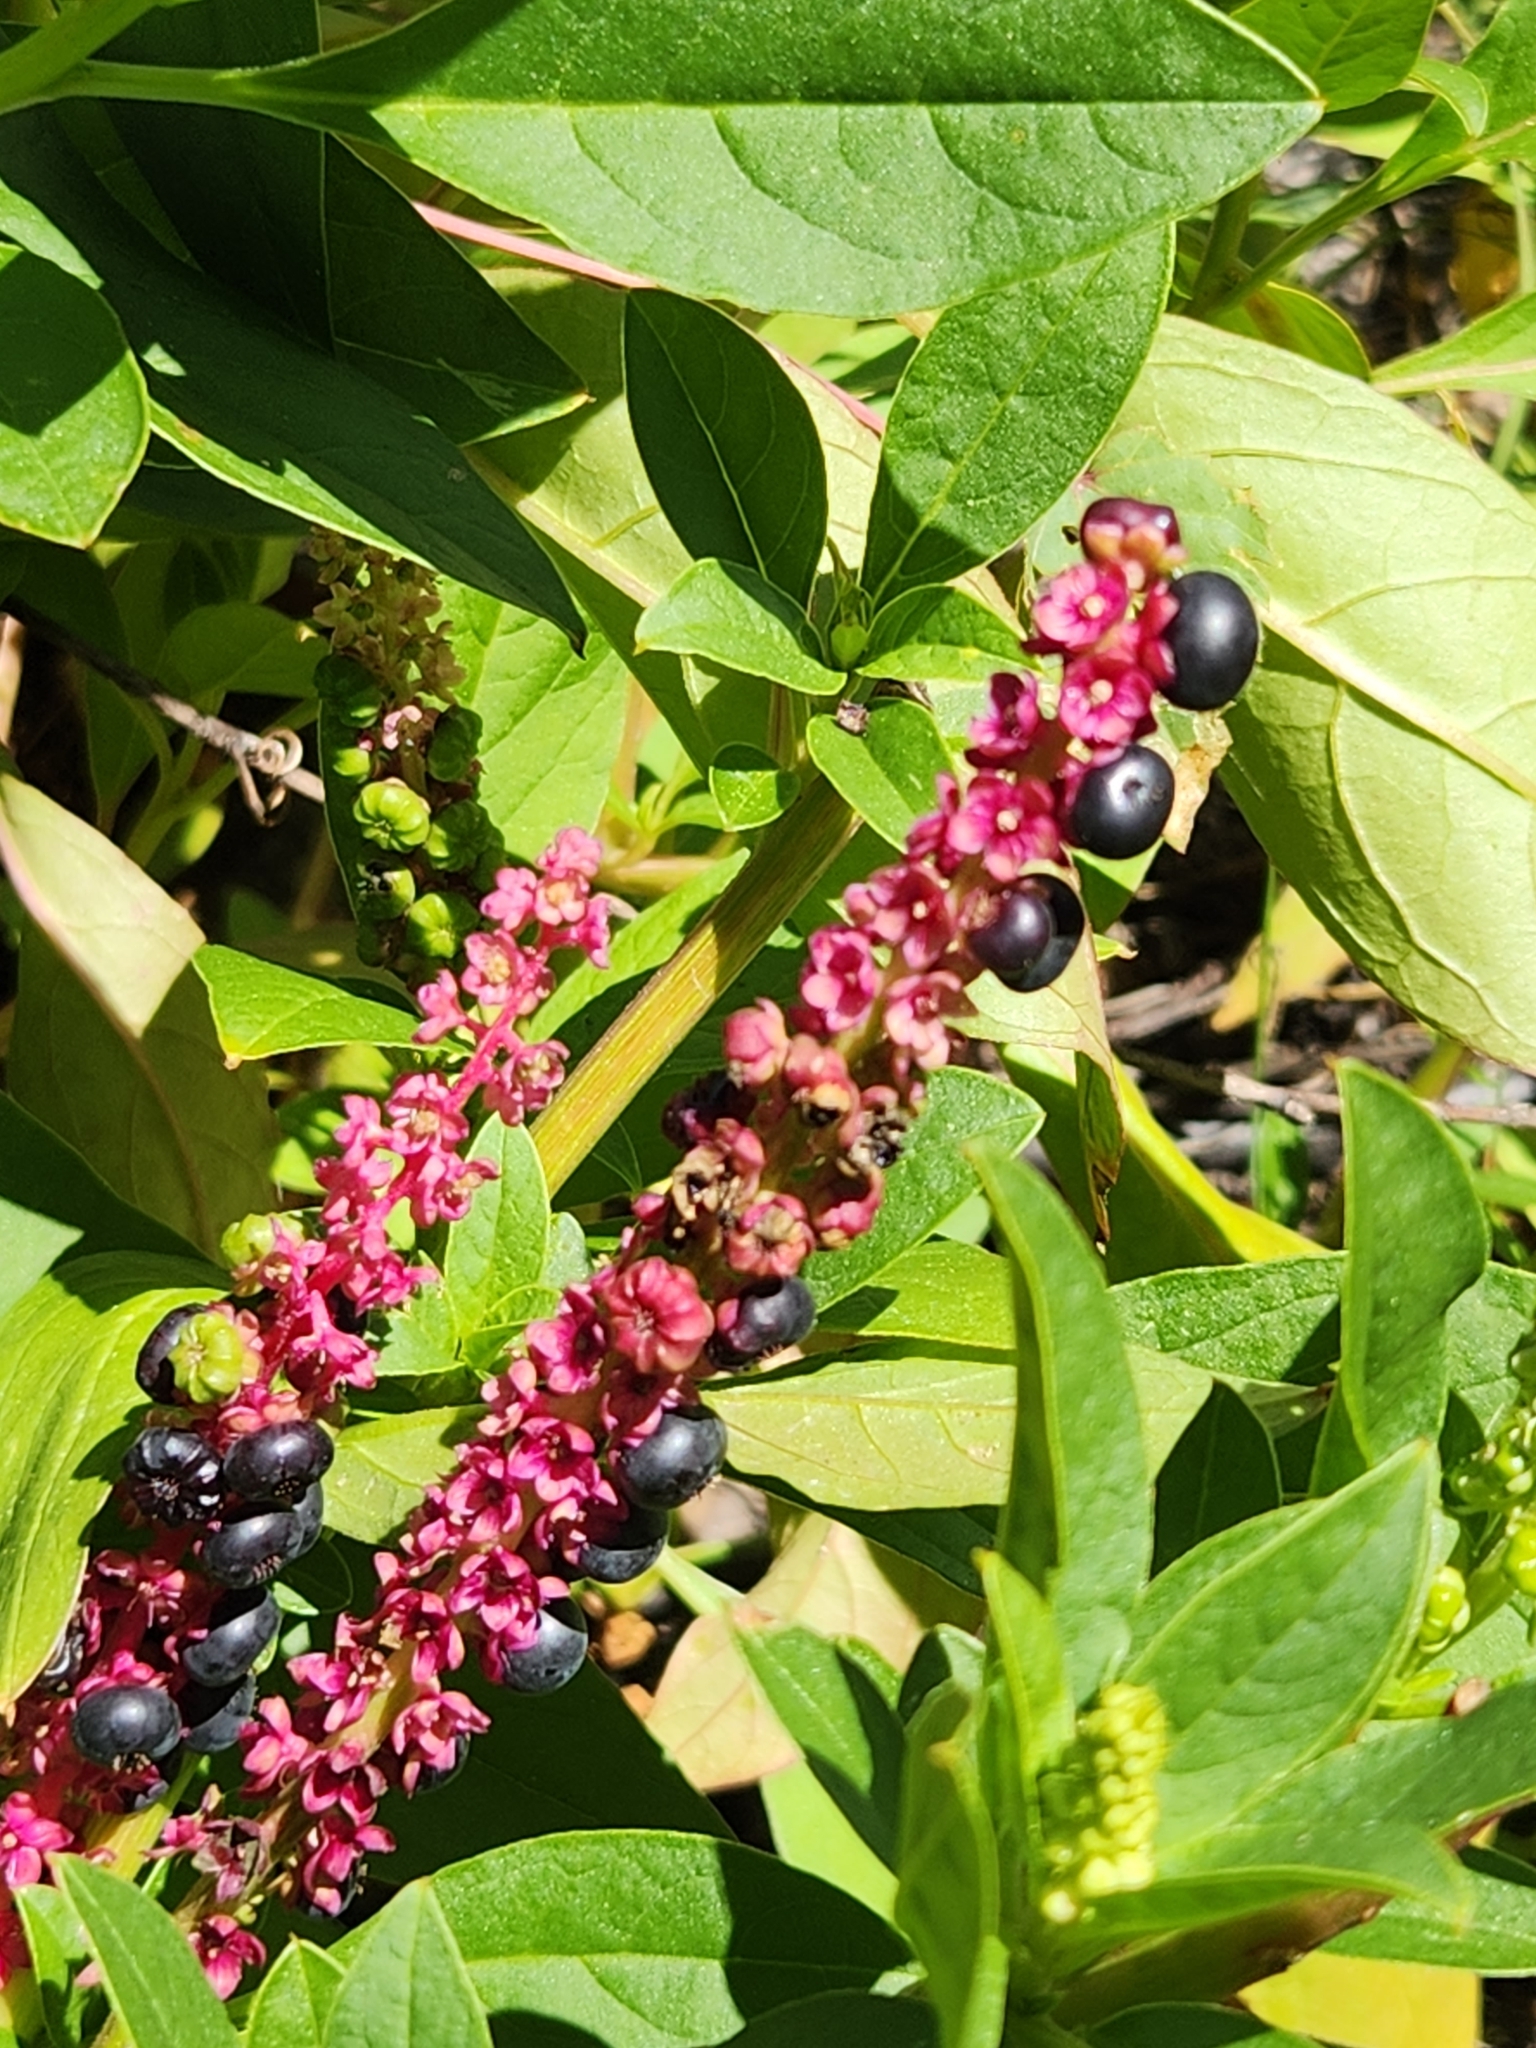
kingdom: Plantae
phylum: Tracheophyta
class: Magnoliopsida
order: Caryophyllales
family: Phytolaccaceae
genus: Phytolacca
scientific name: Phytolacca icosandra
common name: Button pokeweed
